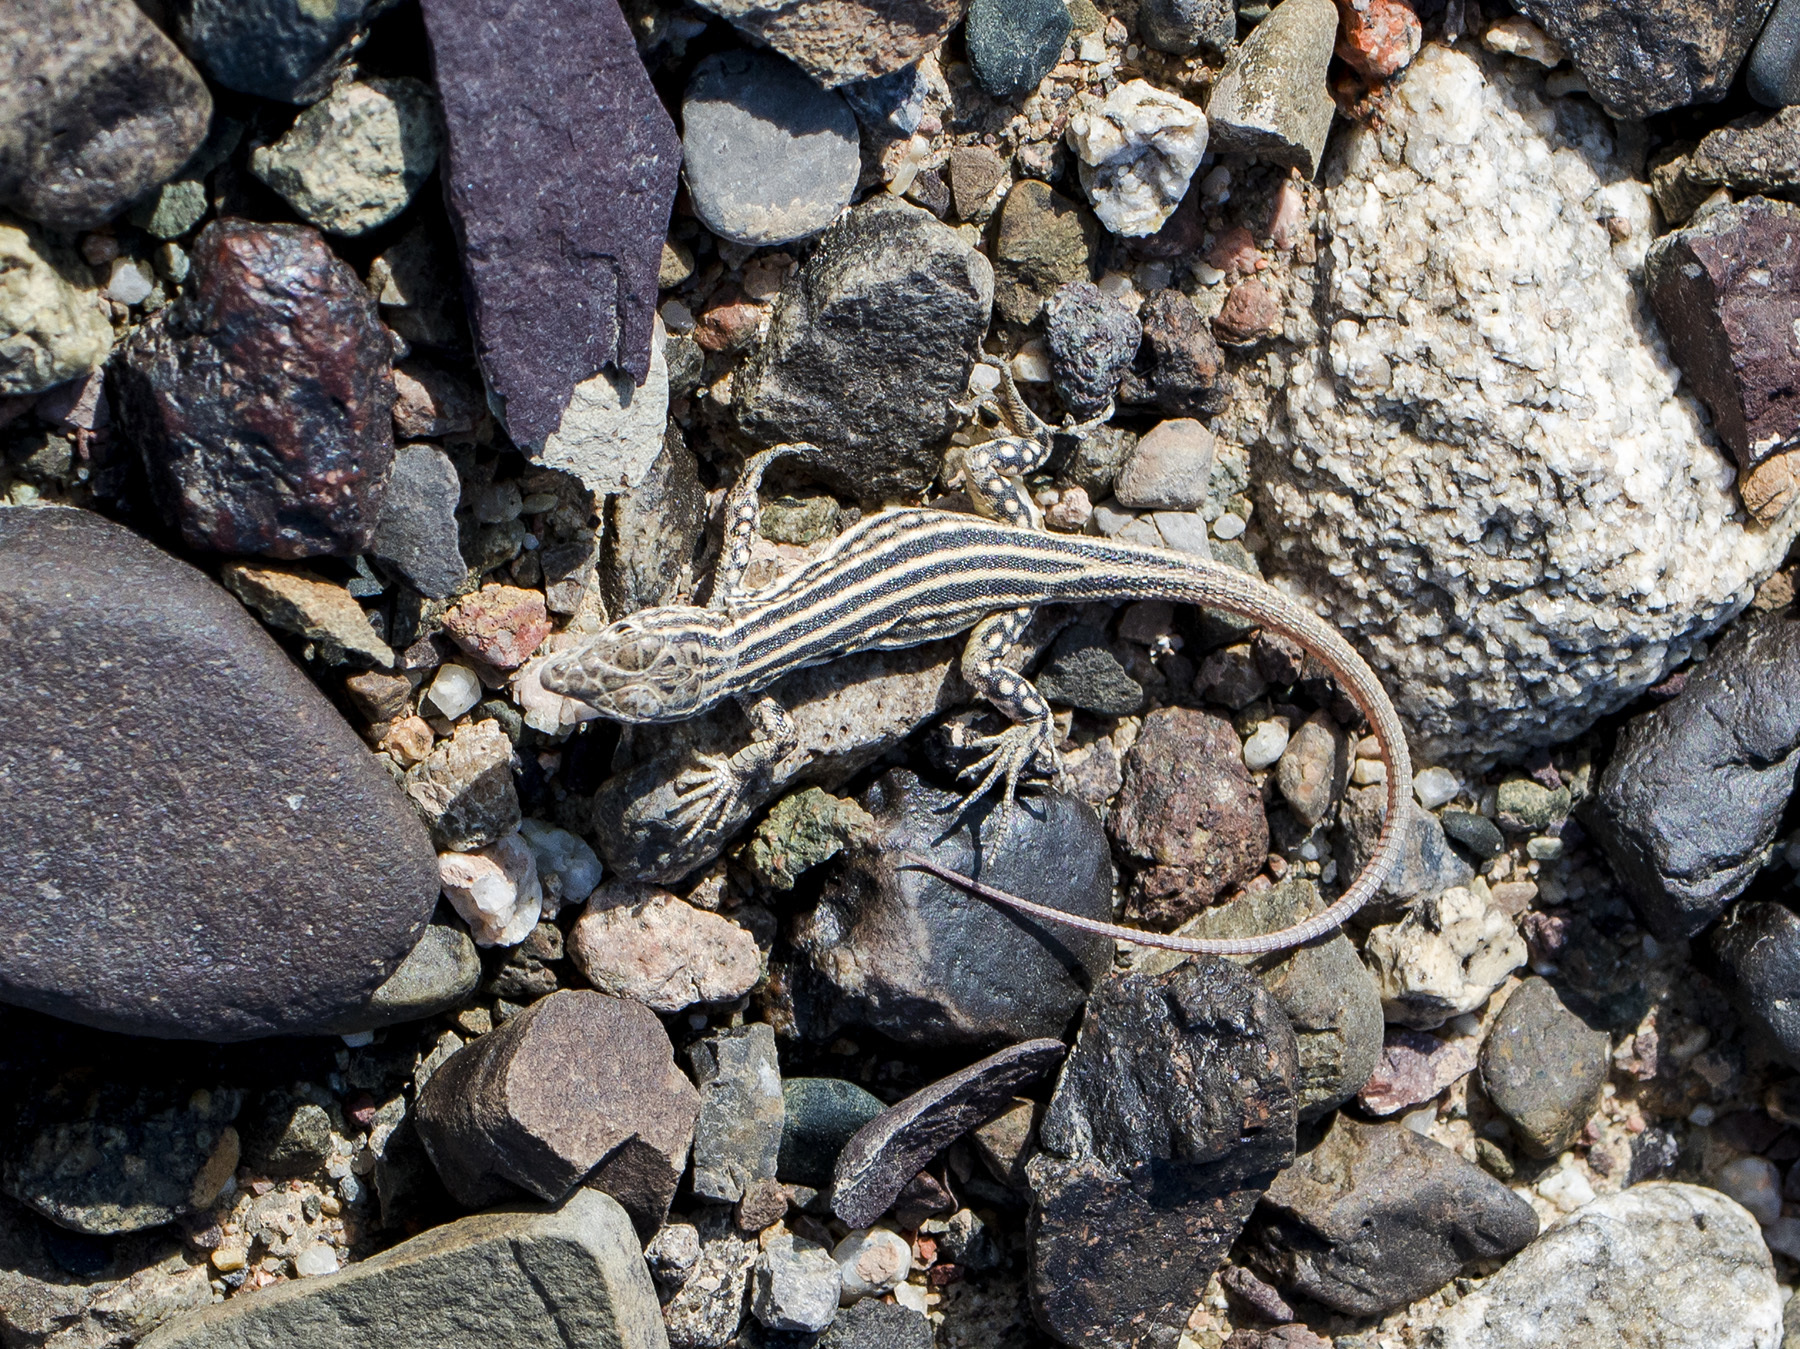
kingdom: Animalia
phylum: Chordata
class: Squamata
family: Lacertidae
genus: Eremias
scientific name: Eremias velox
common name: Central asian racerunner
